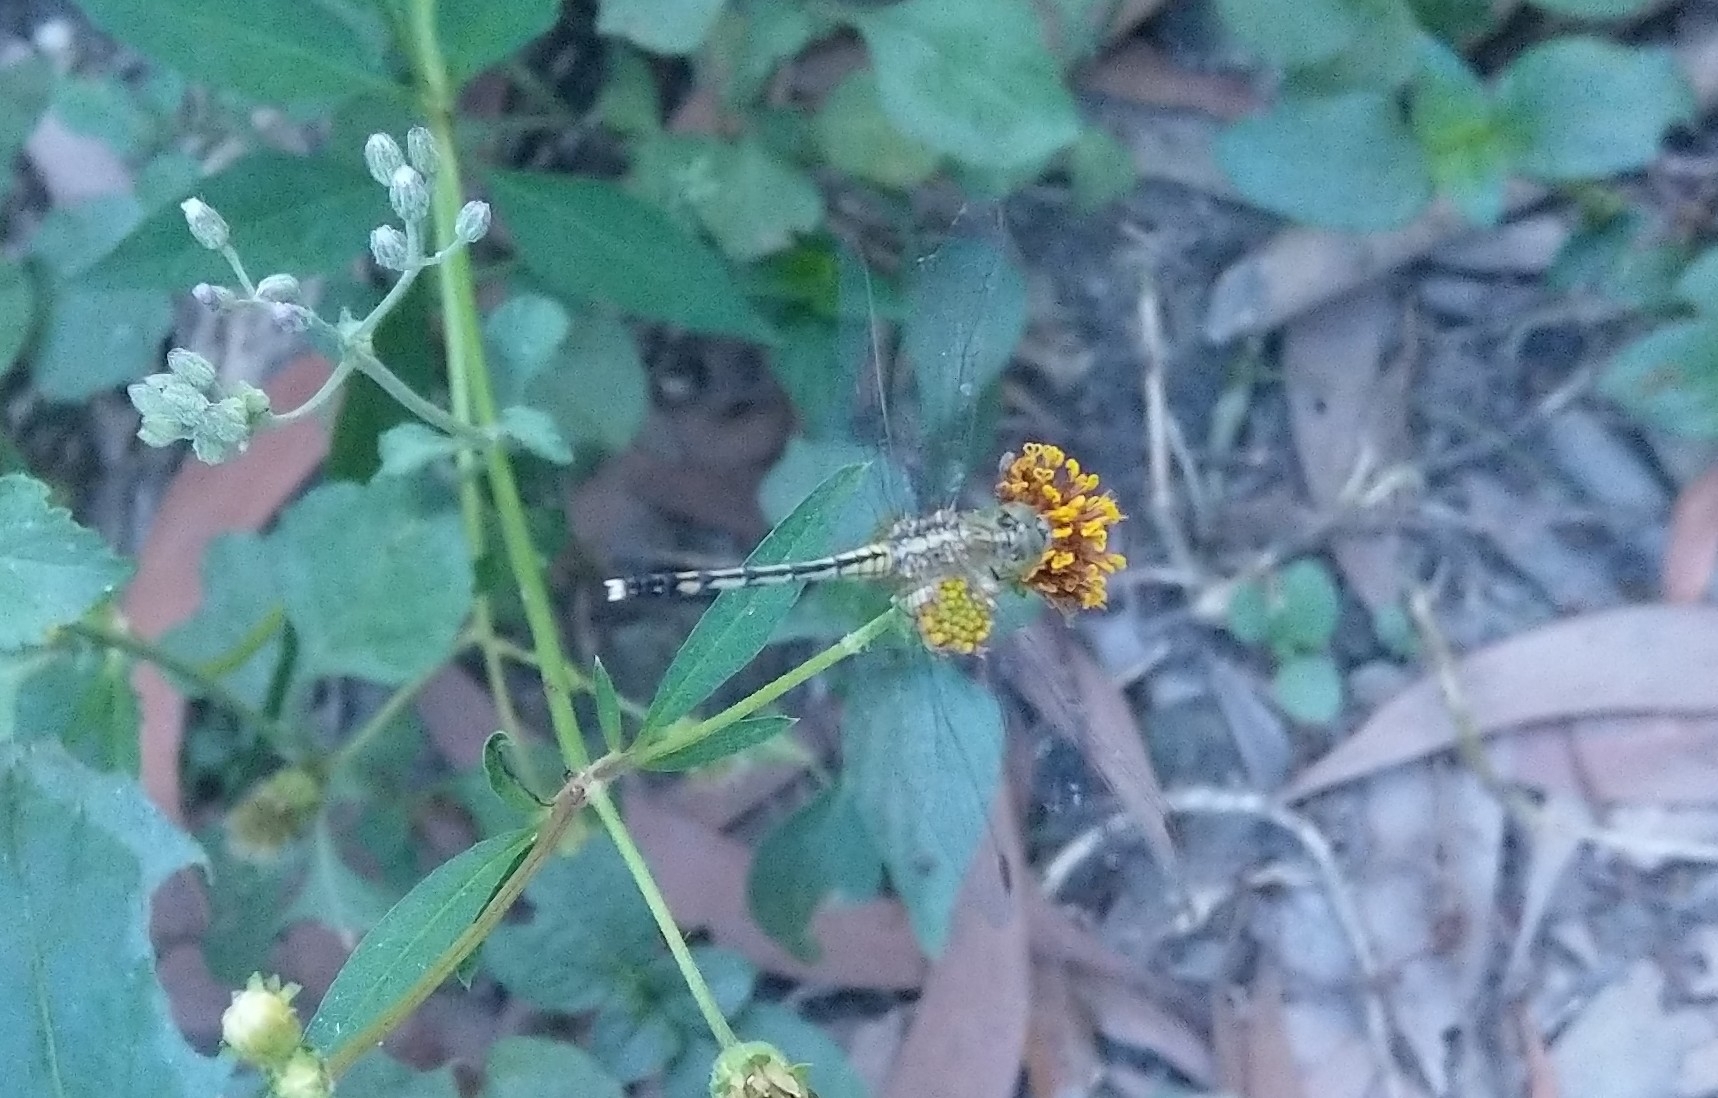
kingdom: Animalia
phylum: Arthropoda
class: Insecta
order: Odonata
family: Libellulidae
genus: Diplacodes
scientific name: Diplacodes trivialis
